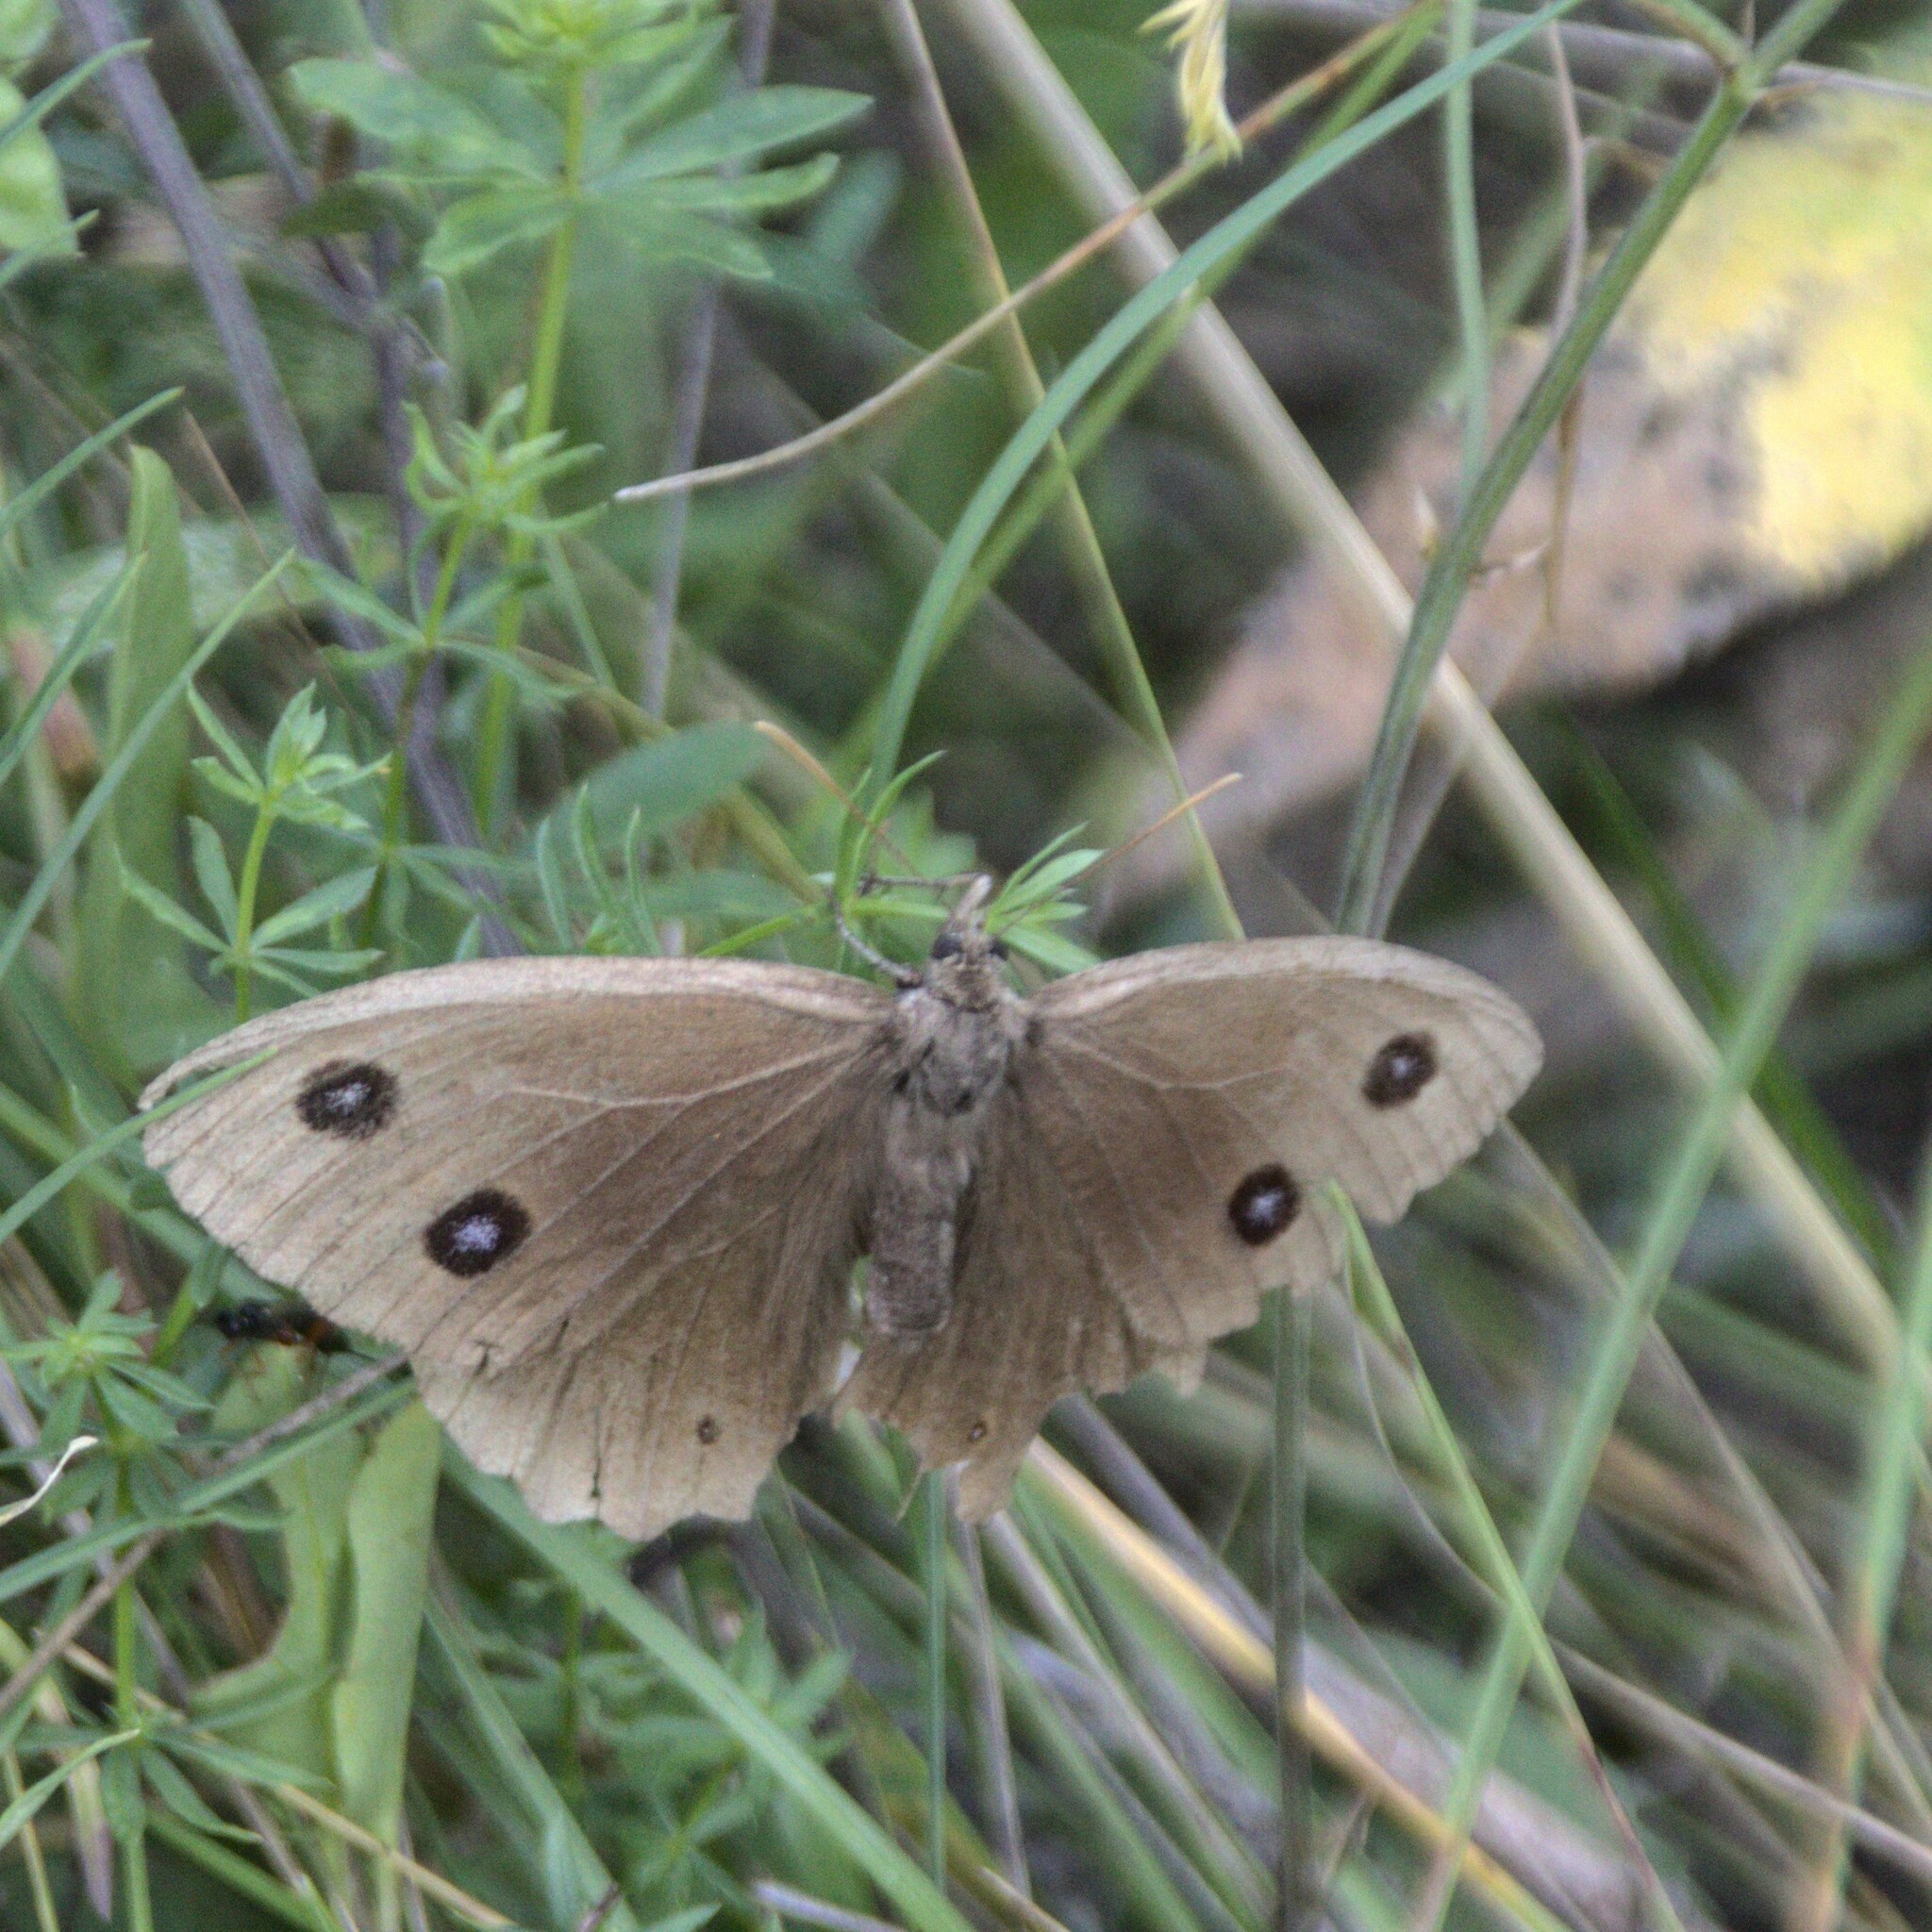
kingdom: Animalia
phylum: Arthropoda
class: Insecta
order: Lepidoptera
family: Nymphalidae
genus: Minois
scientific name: Minois dryas
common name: Dryad
